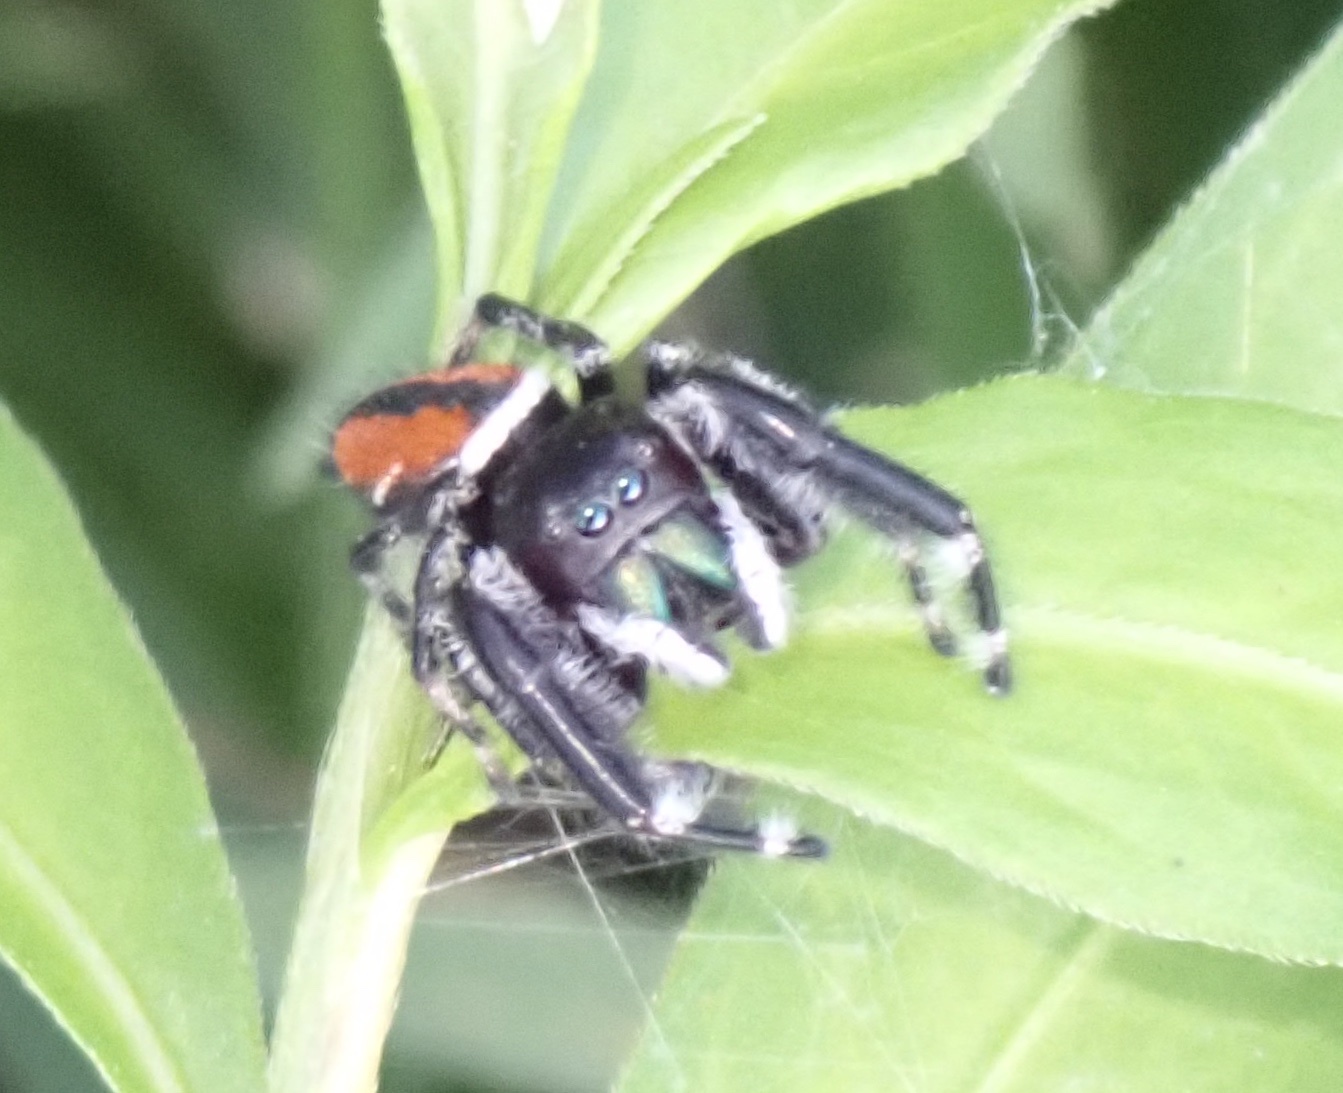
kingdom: Animalia
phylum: Arthropoda
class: Arachnida
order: Araneae
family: Salticidae
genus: Phidippus
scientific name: Phidippus clarus
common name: Brilliant jumping spider
